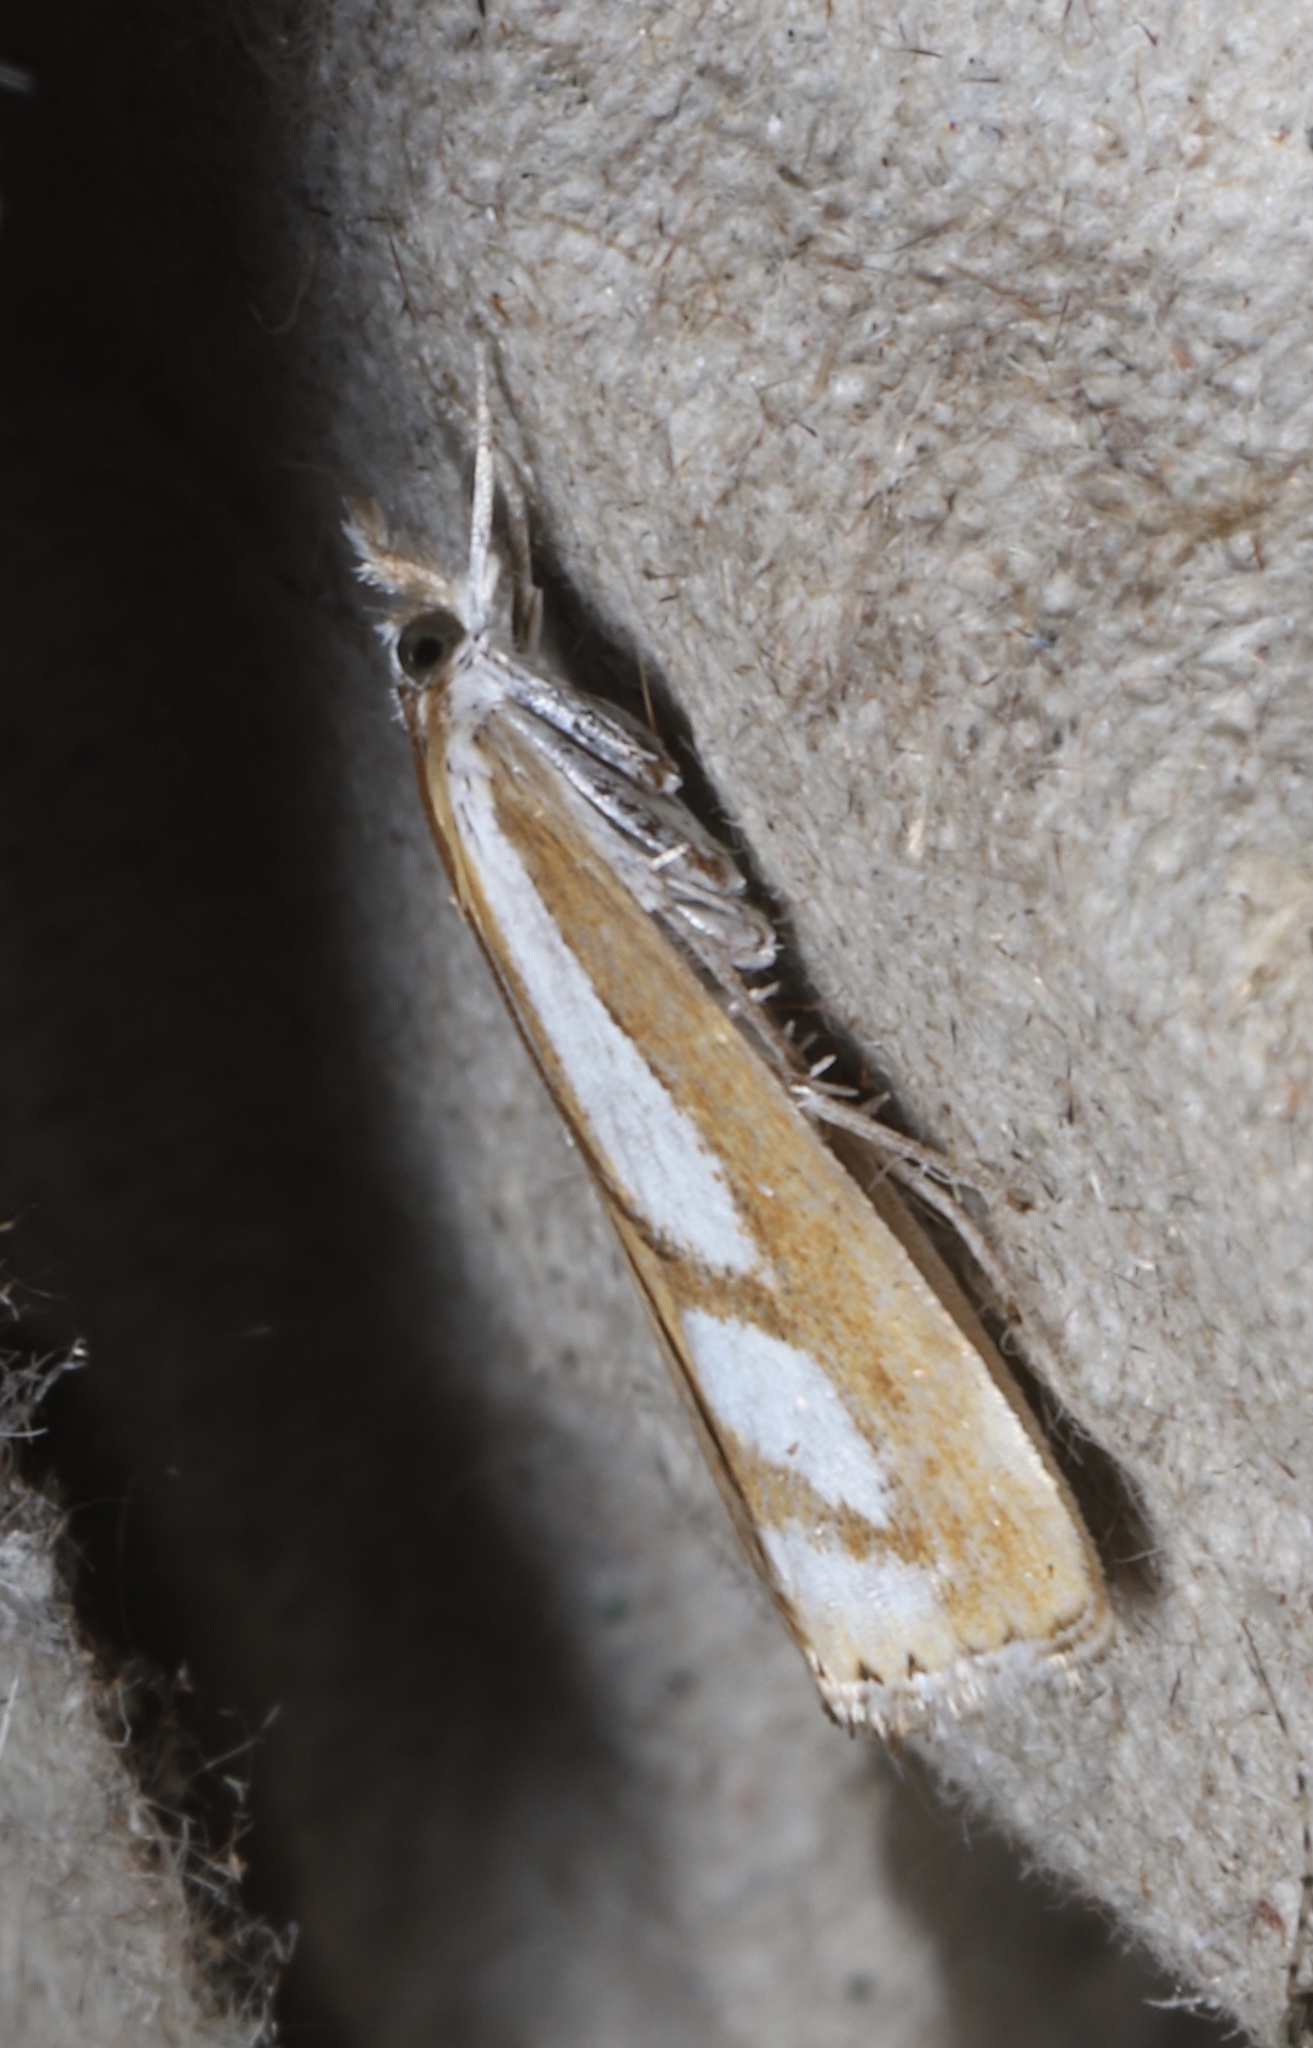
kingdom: Animalia
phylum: Arthropoda
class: Insecta
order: Lepidoptera
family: Crambidae
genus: Catoptria
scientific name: Catoptria latiradiellus
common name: Two-banded catoptria moth
